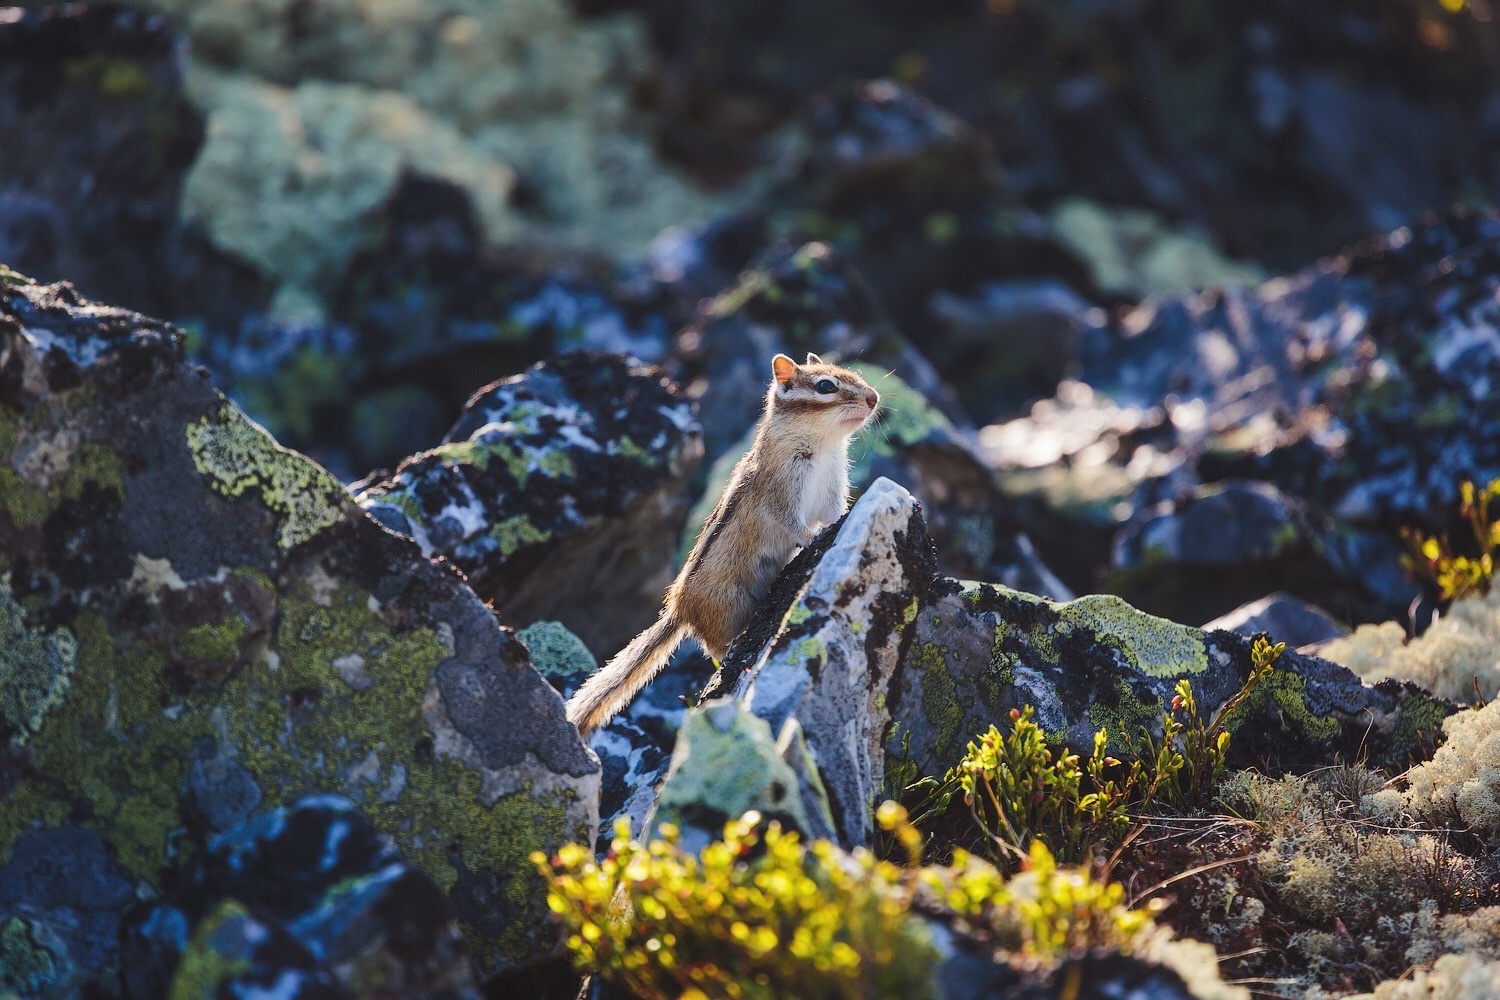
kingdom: Animalia
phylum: Chordata
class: Mammalia
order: Rodentia
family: Sciuridae
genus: Tamias
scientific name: Tamias sibiricus
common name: Siberian chipmunk
